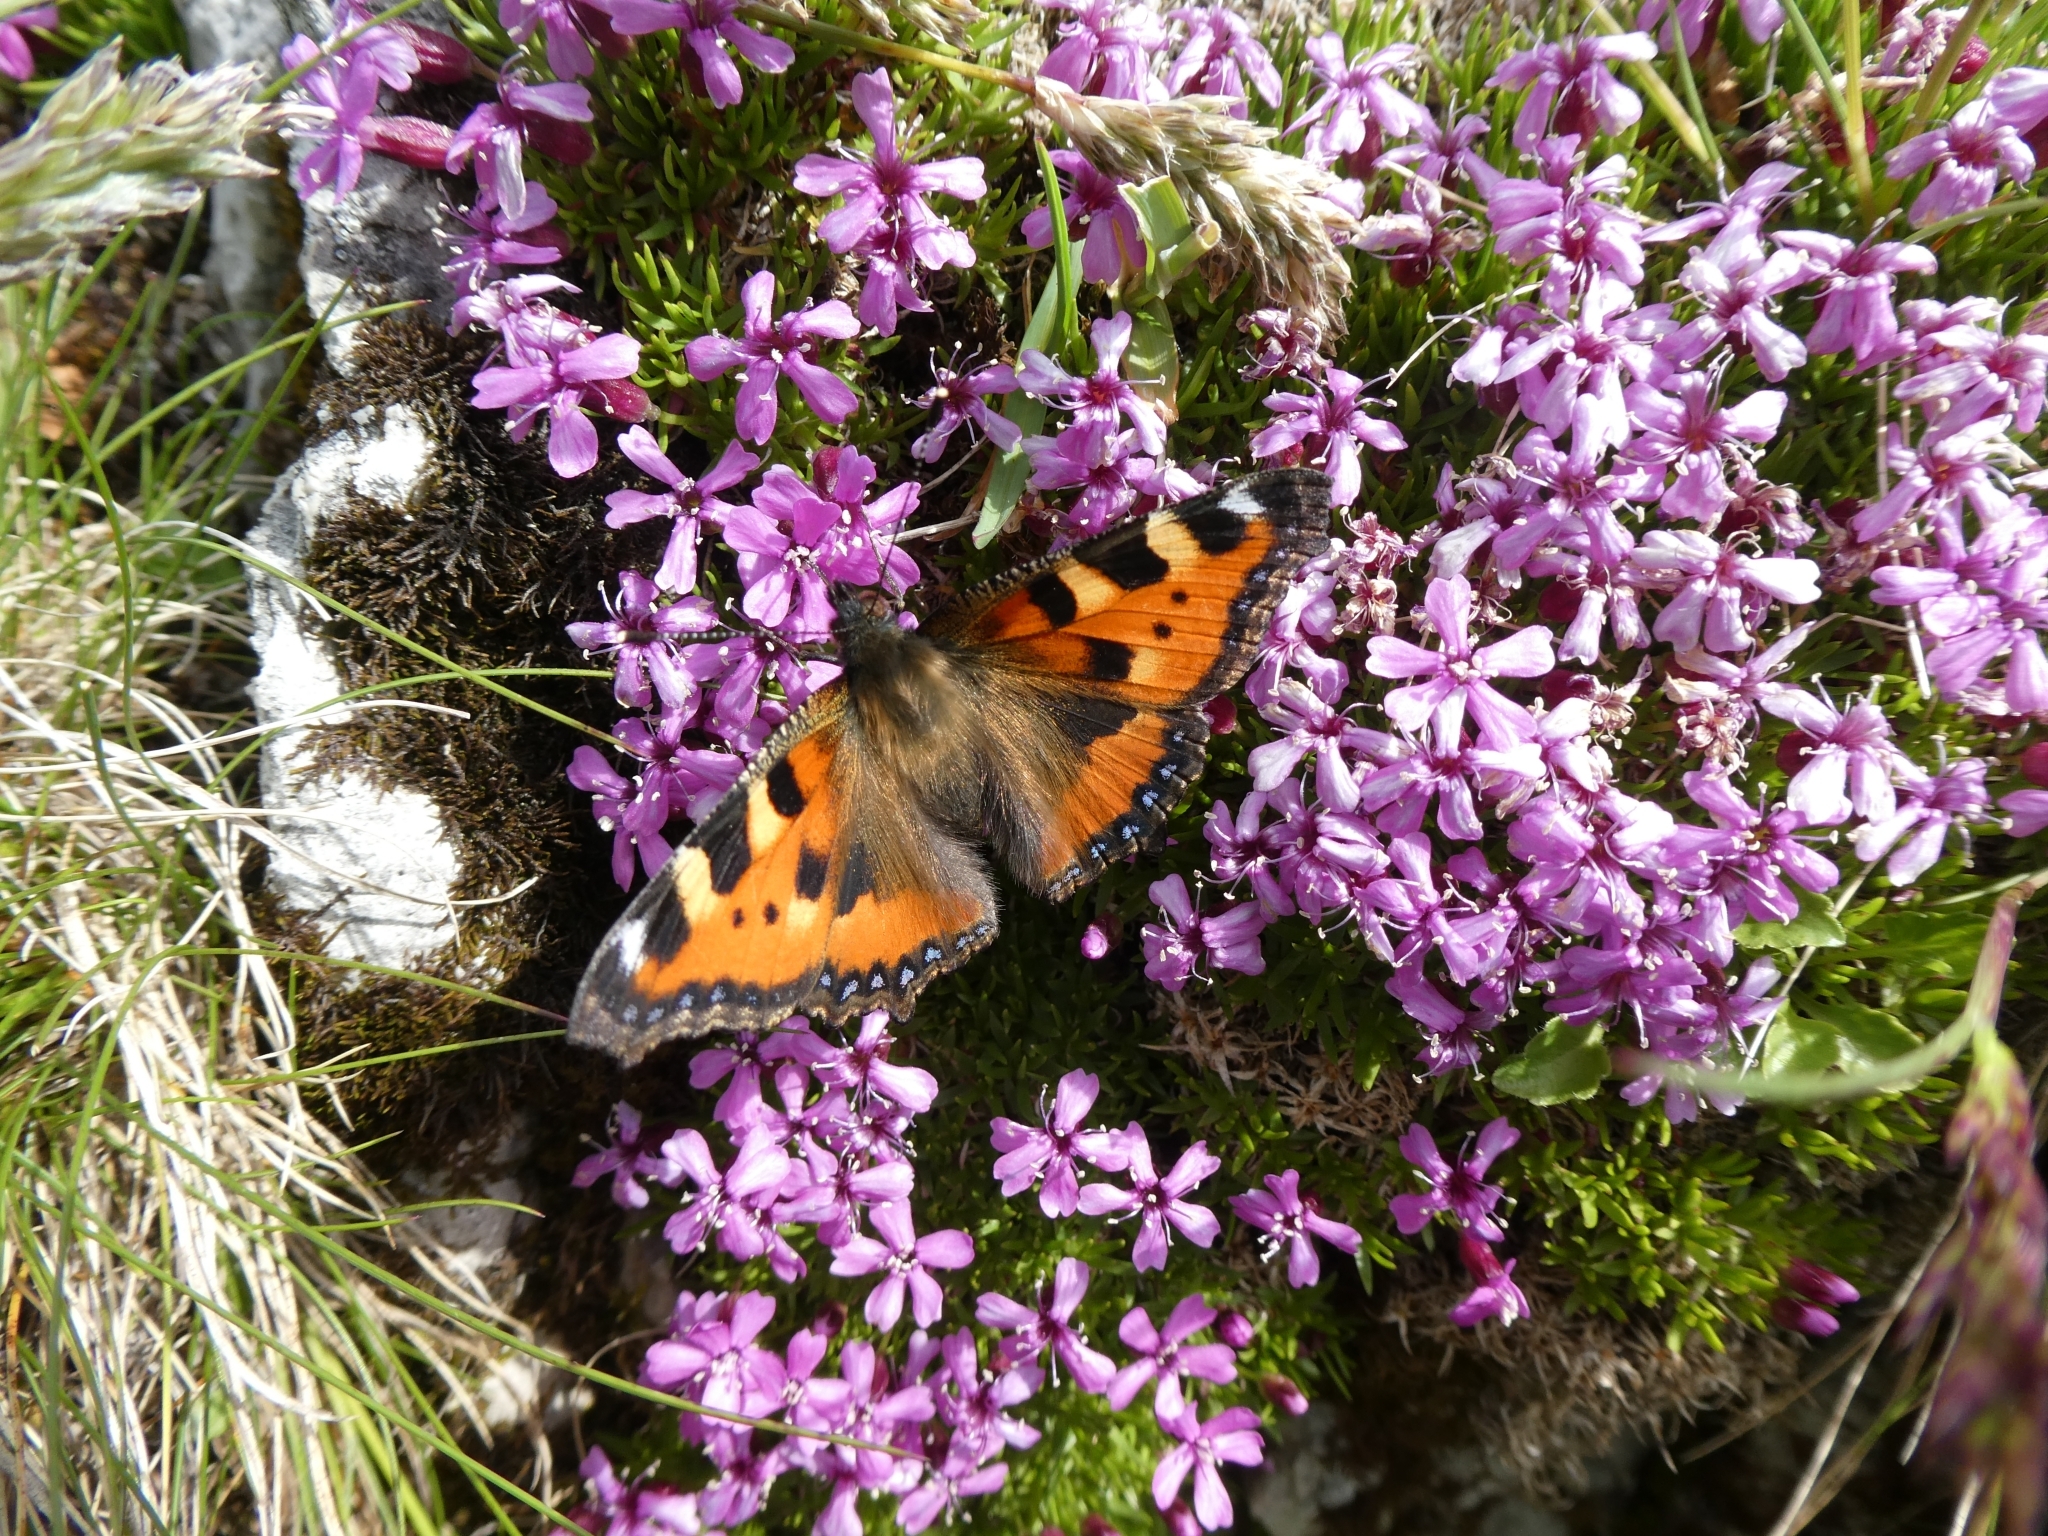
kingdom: Animalia
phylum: Arthropoda
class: Insecta
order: Lepidoptera
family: Nymphalidae
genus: Aglais
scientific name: Aglais urticae
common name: Small tortoiseshell
